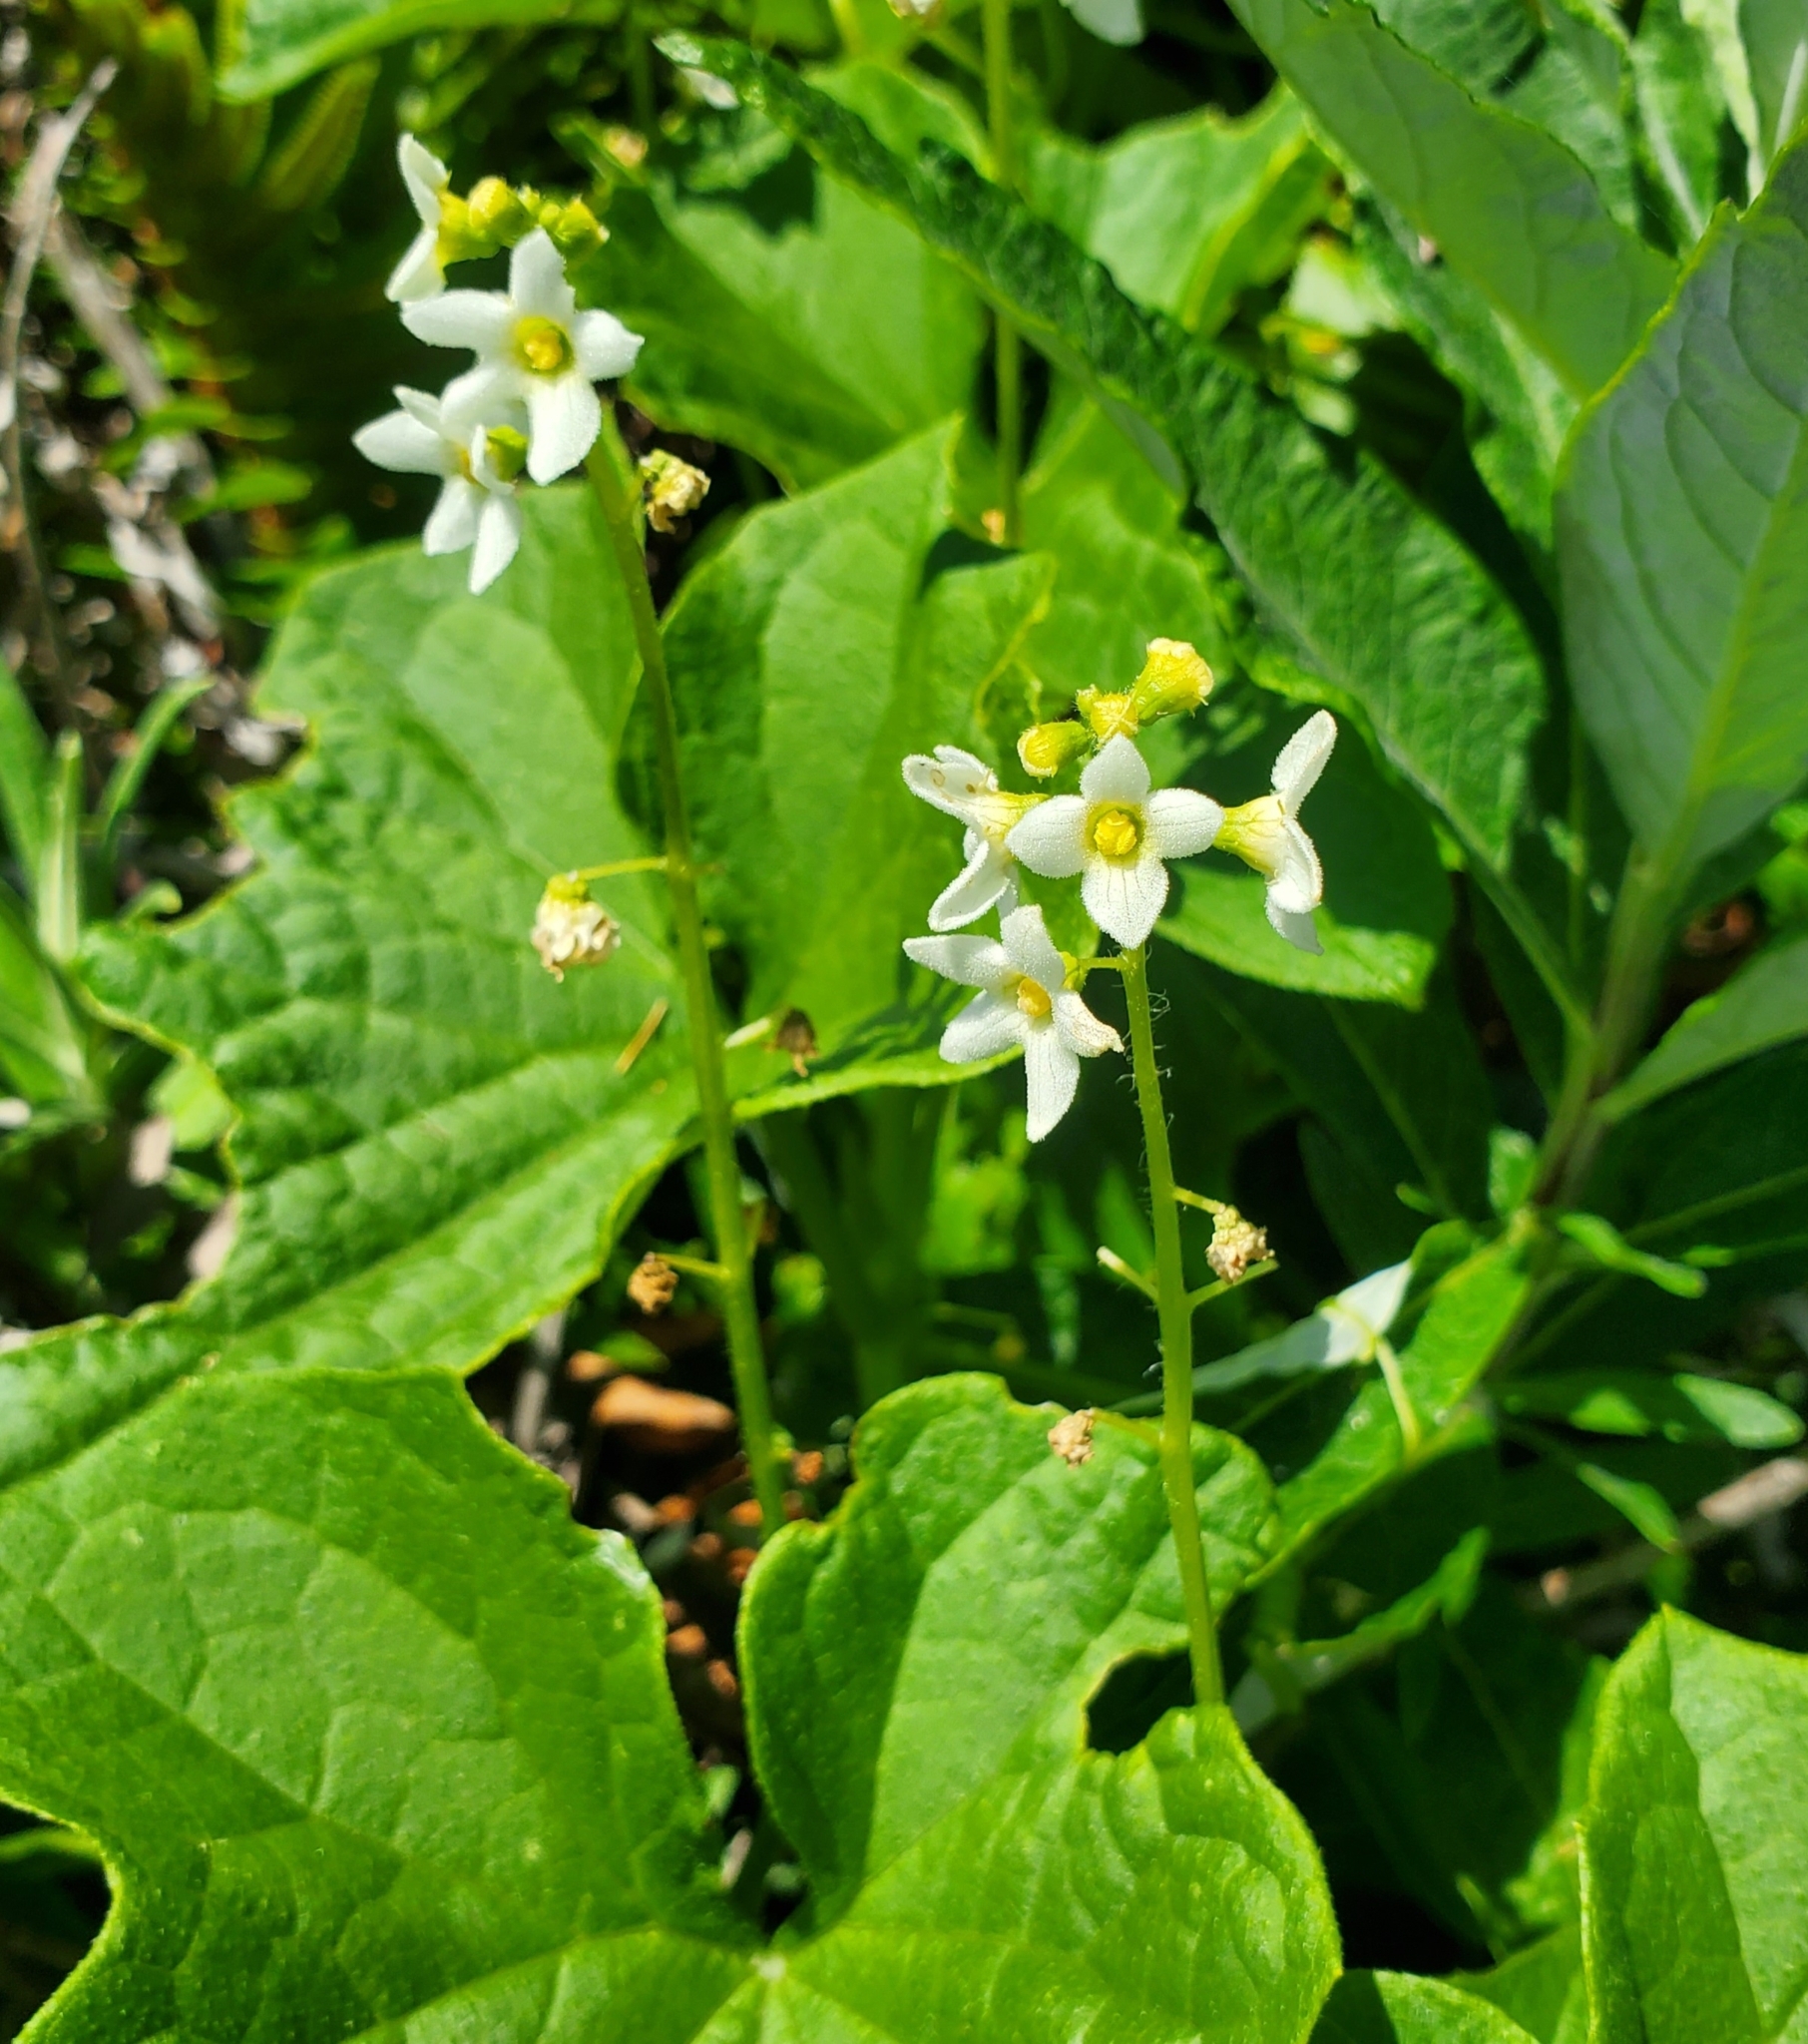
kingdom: Plantae
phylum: Tracheophyta
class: Magnoliopsida
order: Cucurbitales
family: Cucurbitaceae
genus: Marah
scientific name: Marah oregana
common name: Coastal manroot
